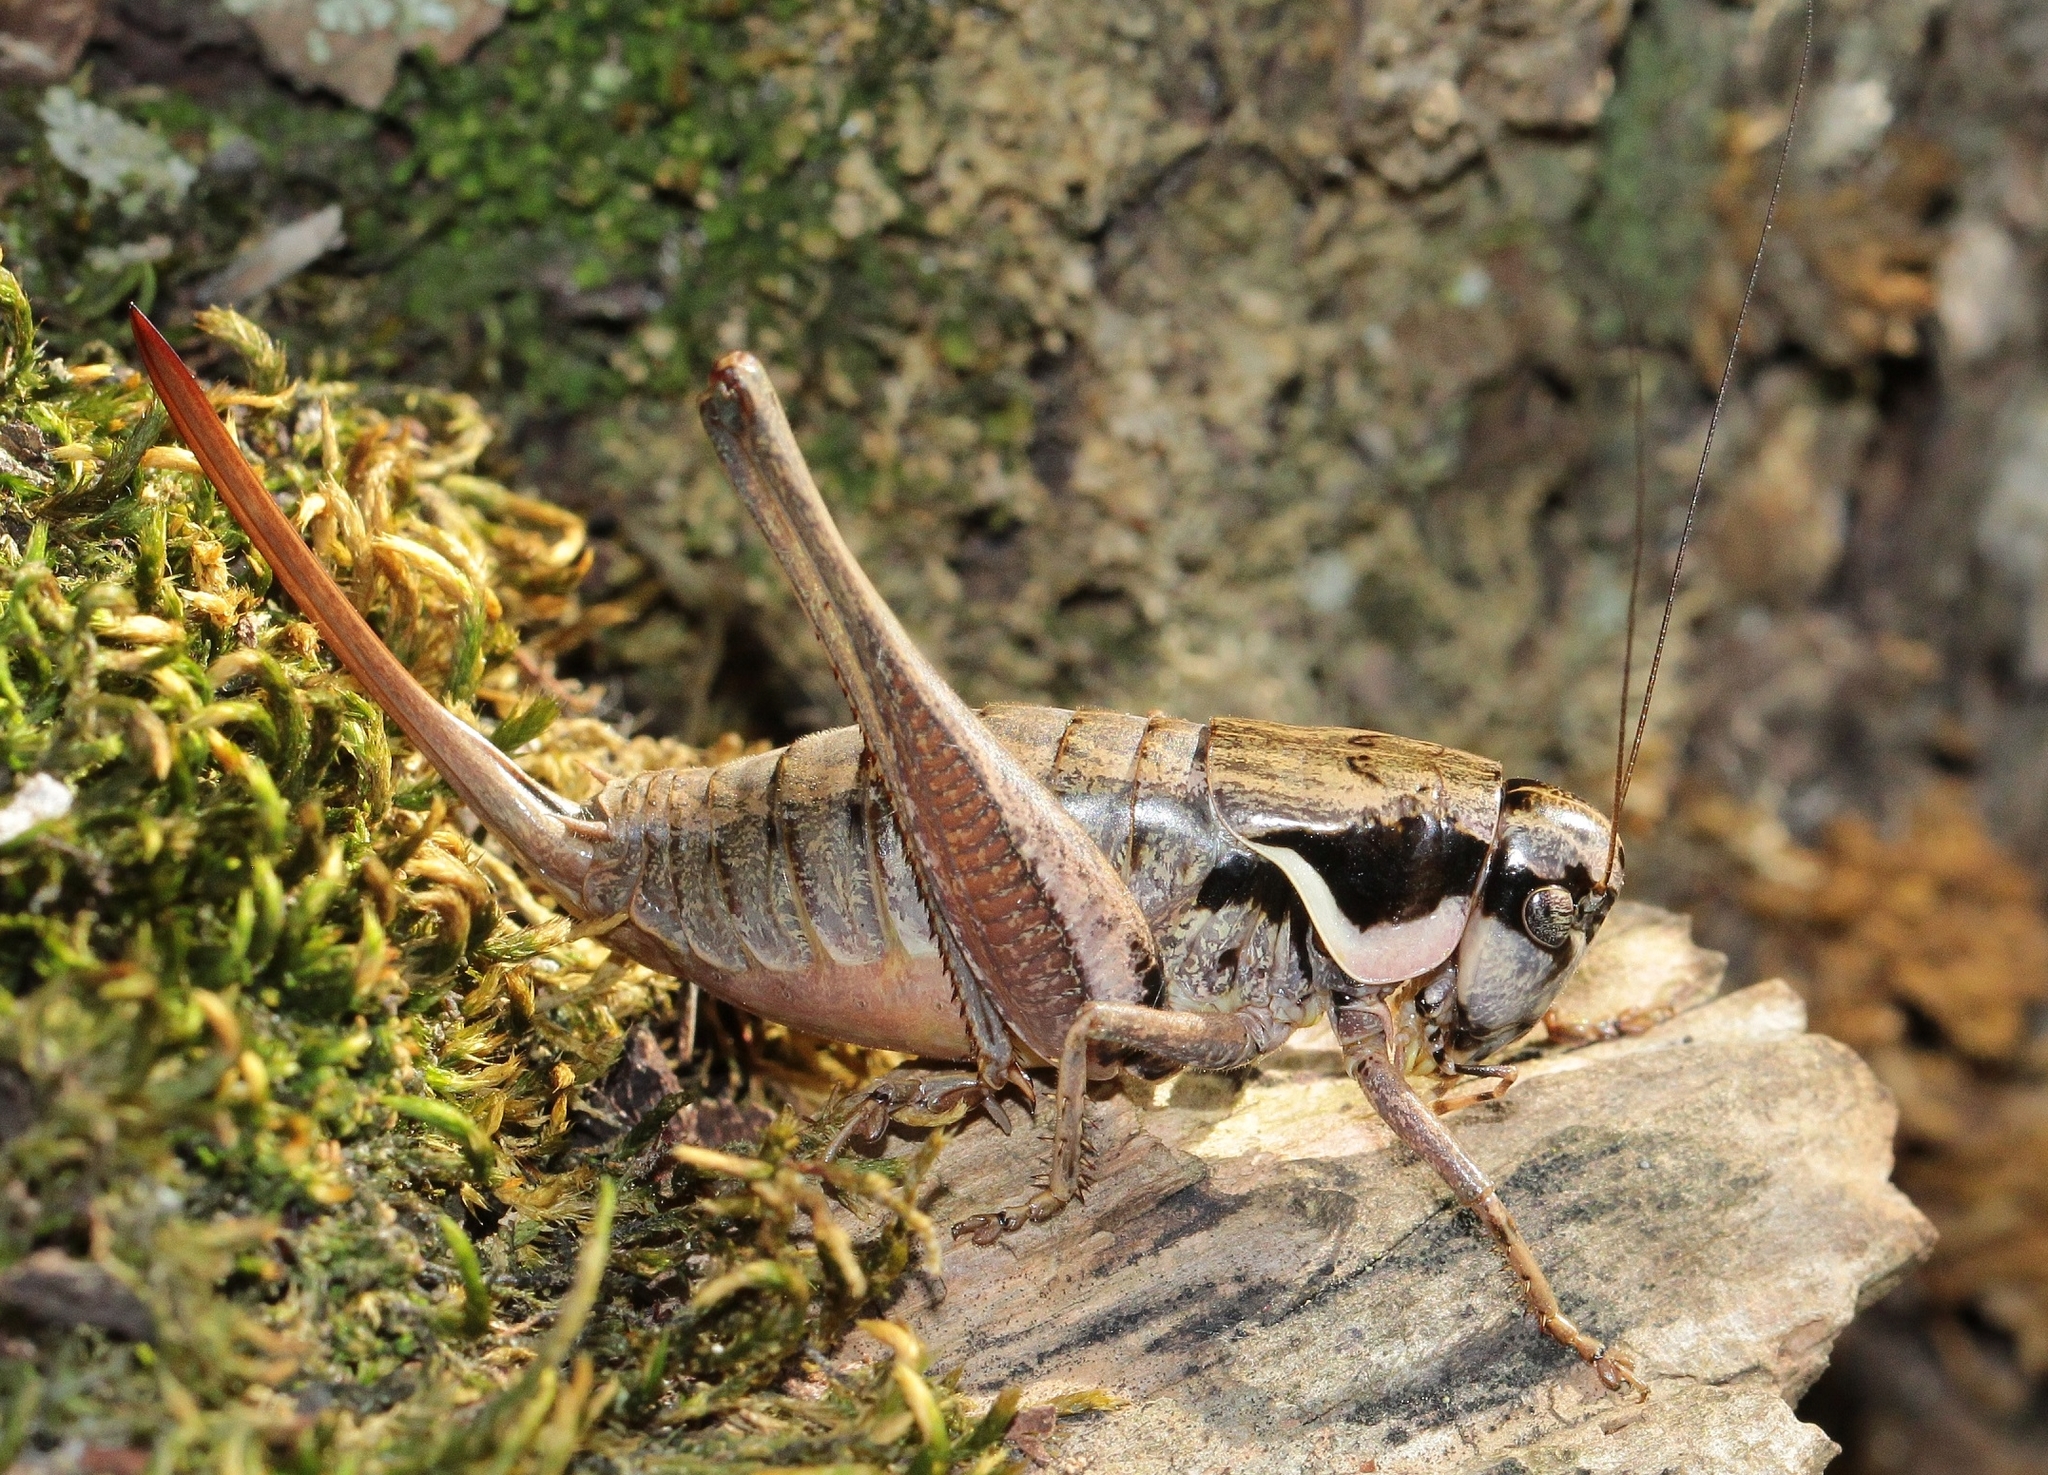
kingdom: Animalia
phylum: Arthropoda
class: Insecta
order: Orthoptera
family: Tettigoniidae
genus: Pholidoptera
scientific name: Pholidoptera pustulipes
